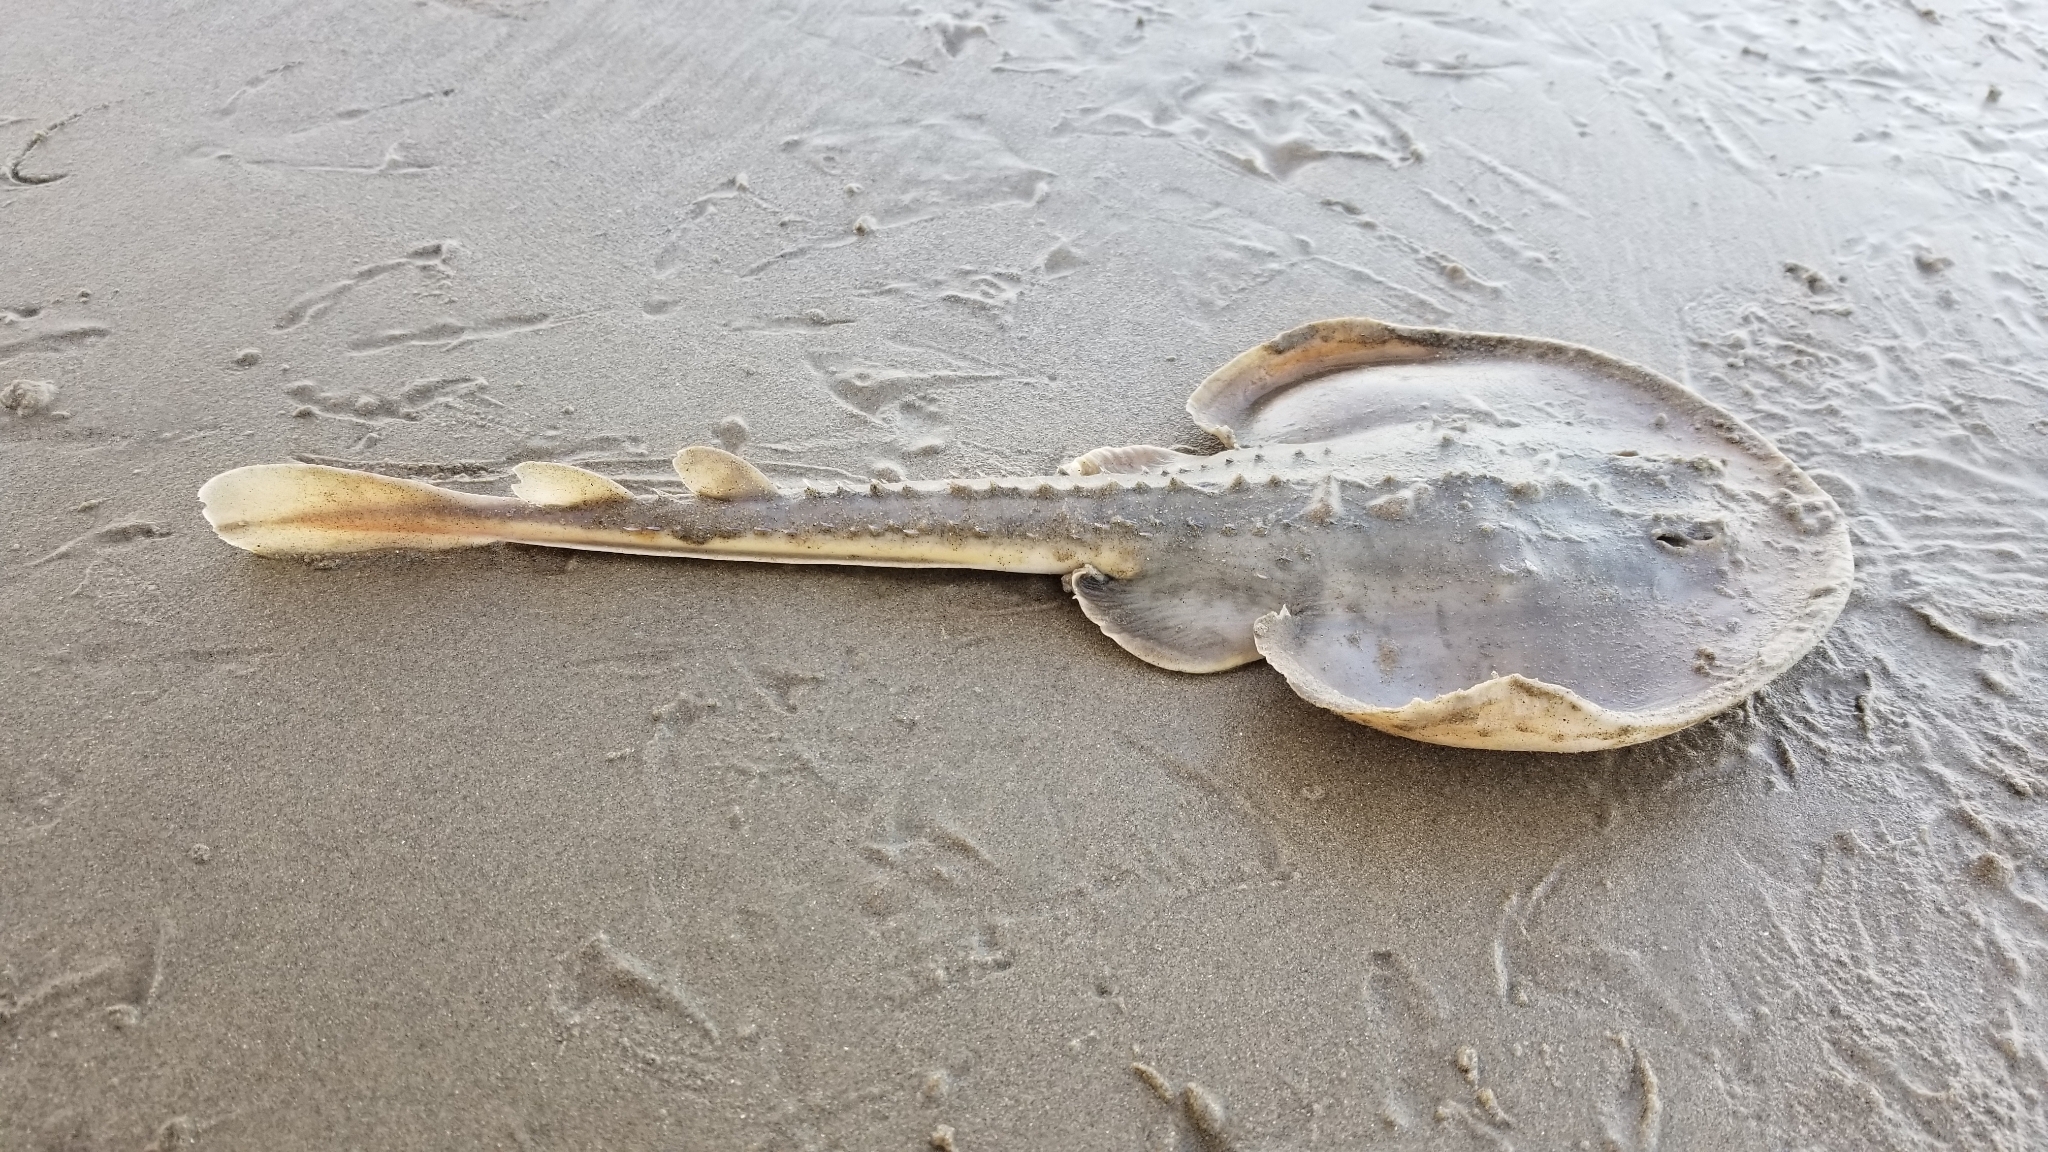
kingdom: Animalia
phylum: Chordata
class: Elasmobranchii
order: Rhinopristiformes
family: Rhinobatidae
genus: Platyrhinoidis
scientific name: Platyrhinoidis triseriata
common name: Thornback
